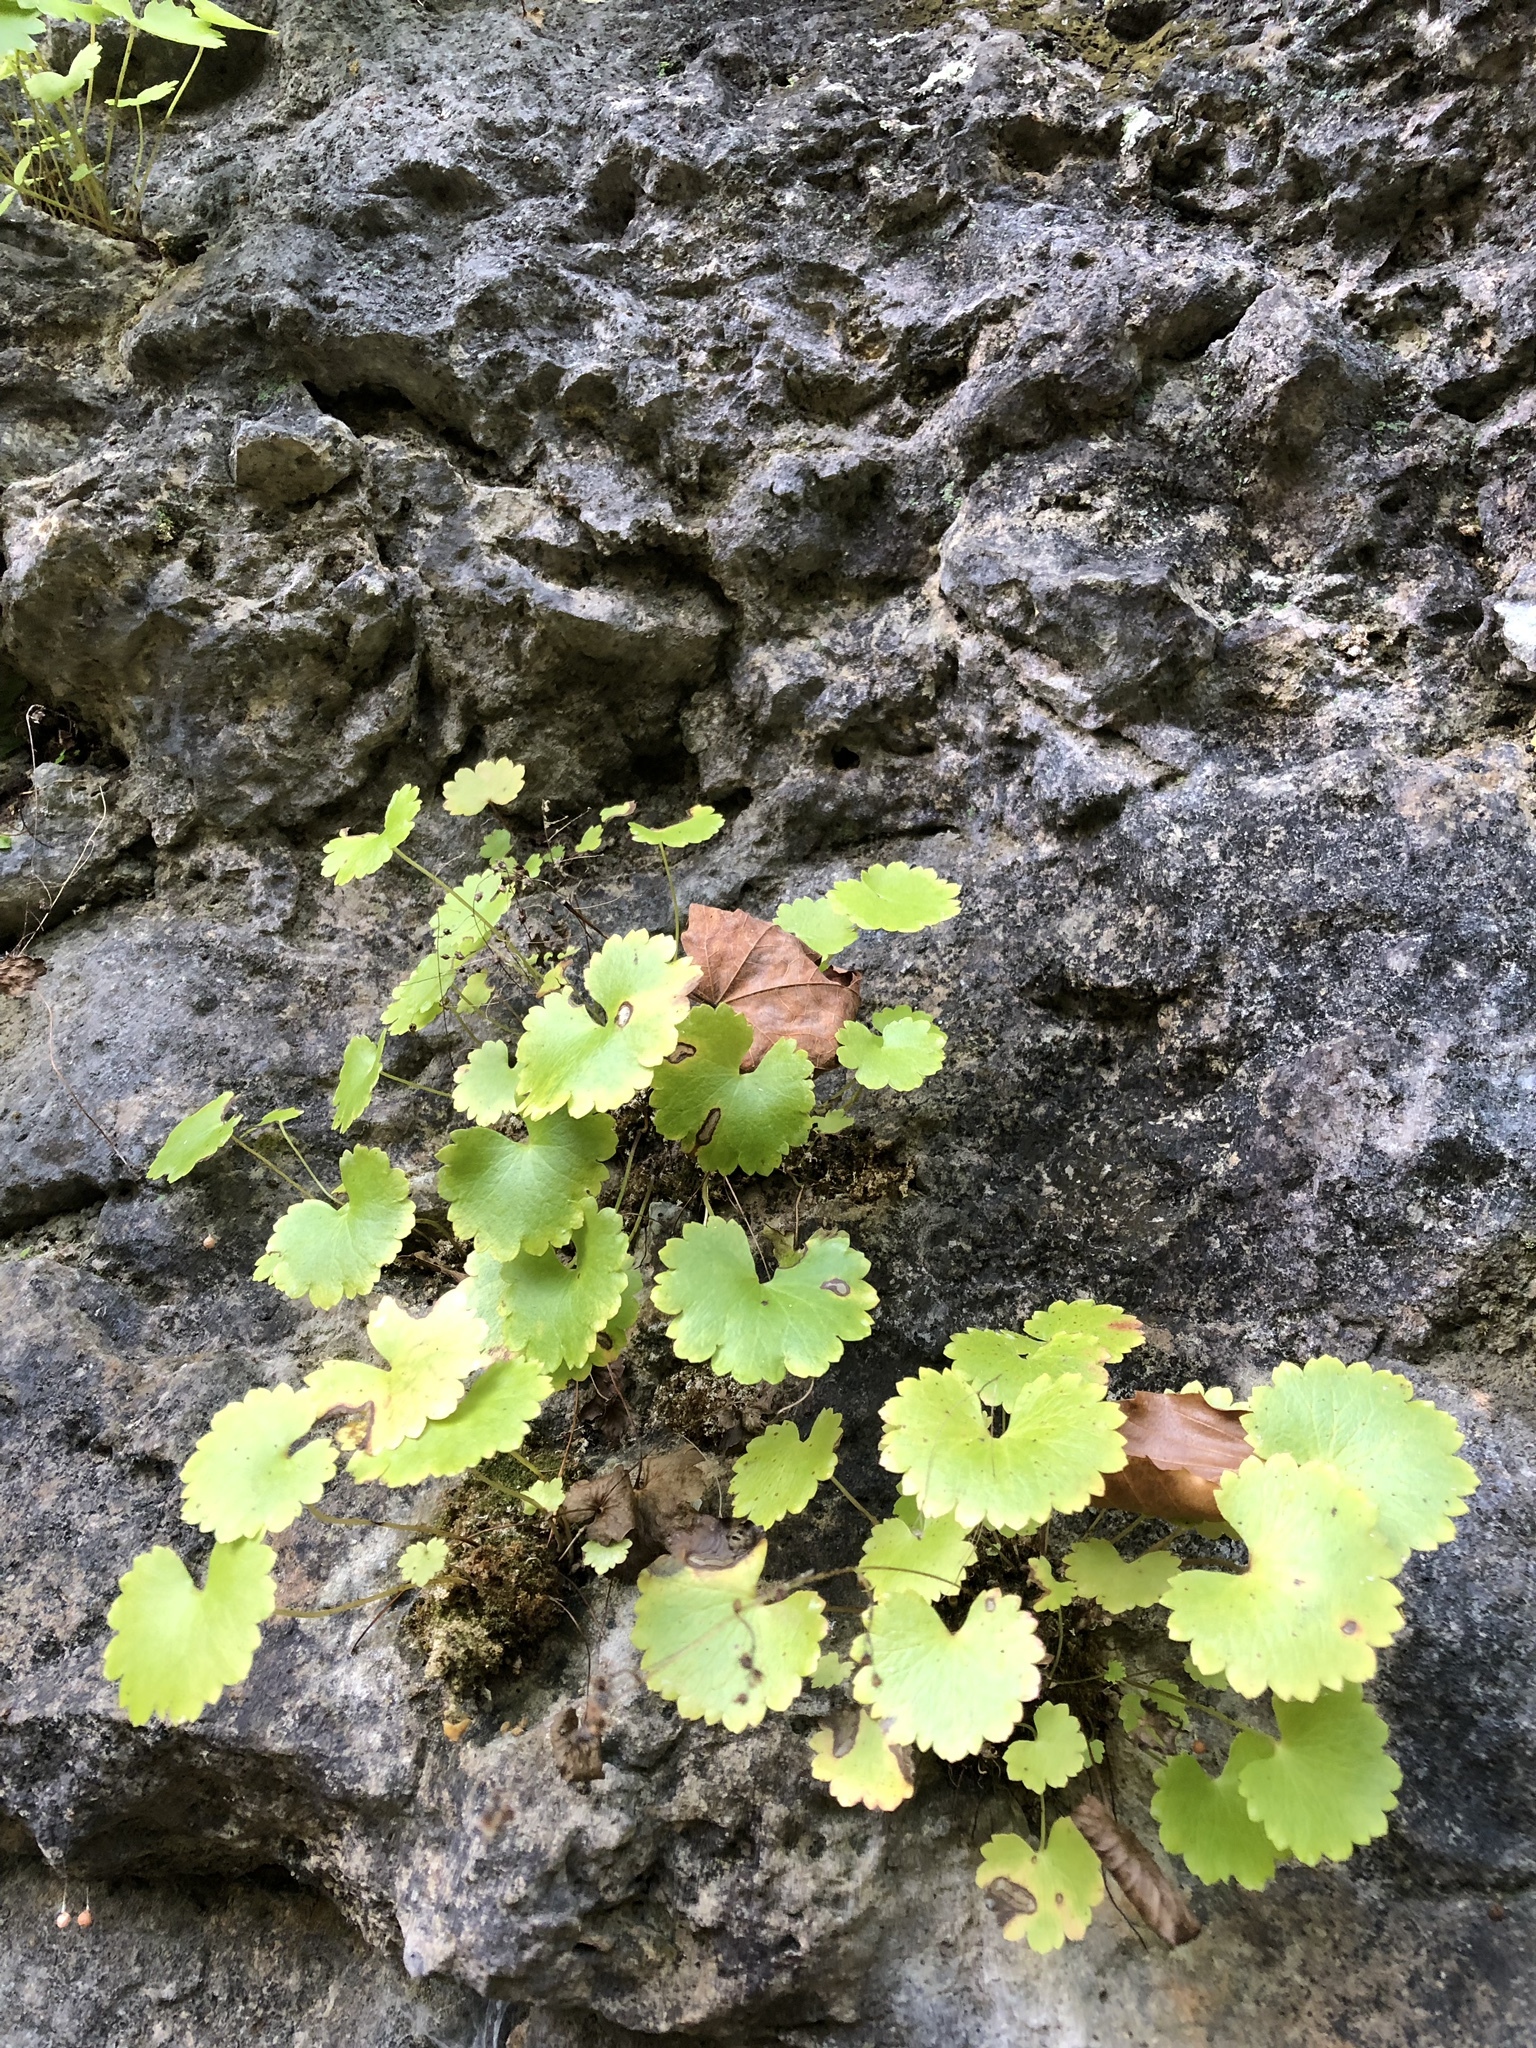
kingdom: Plantae
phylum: Tracheophyta
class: Magnoliopsida
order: Saxifragales
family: Saxifragaceae
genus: Sullivantia
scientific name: Sullivantia sullivantii
